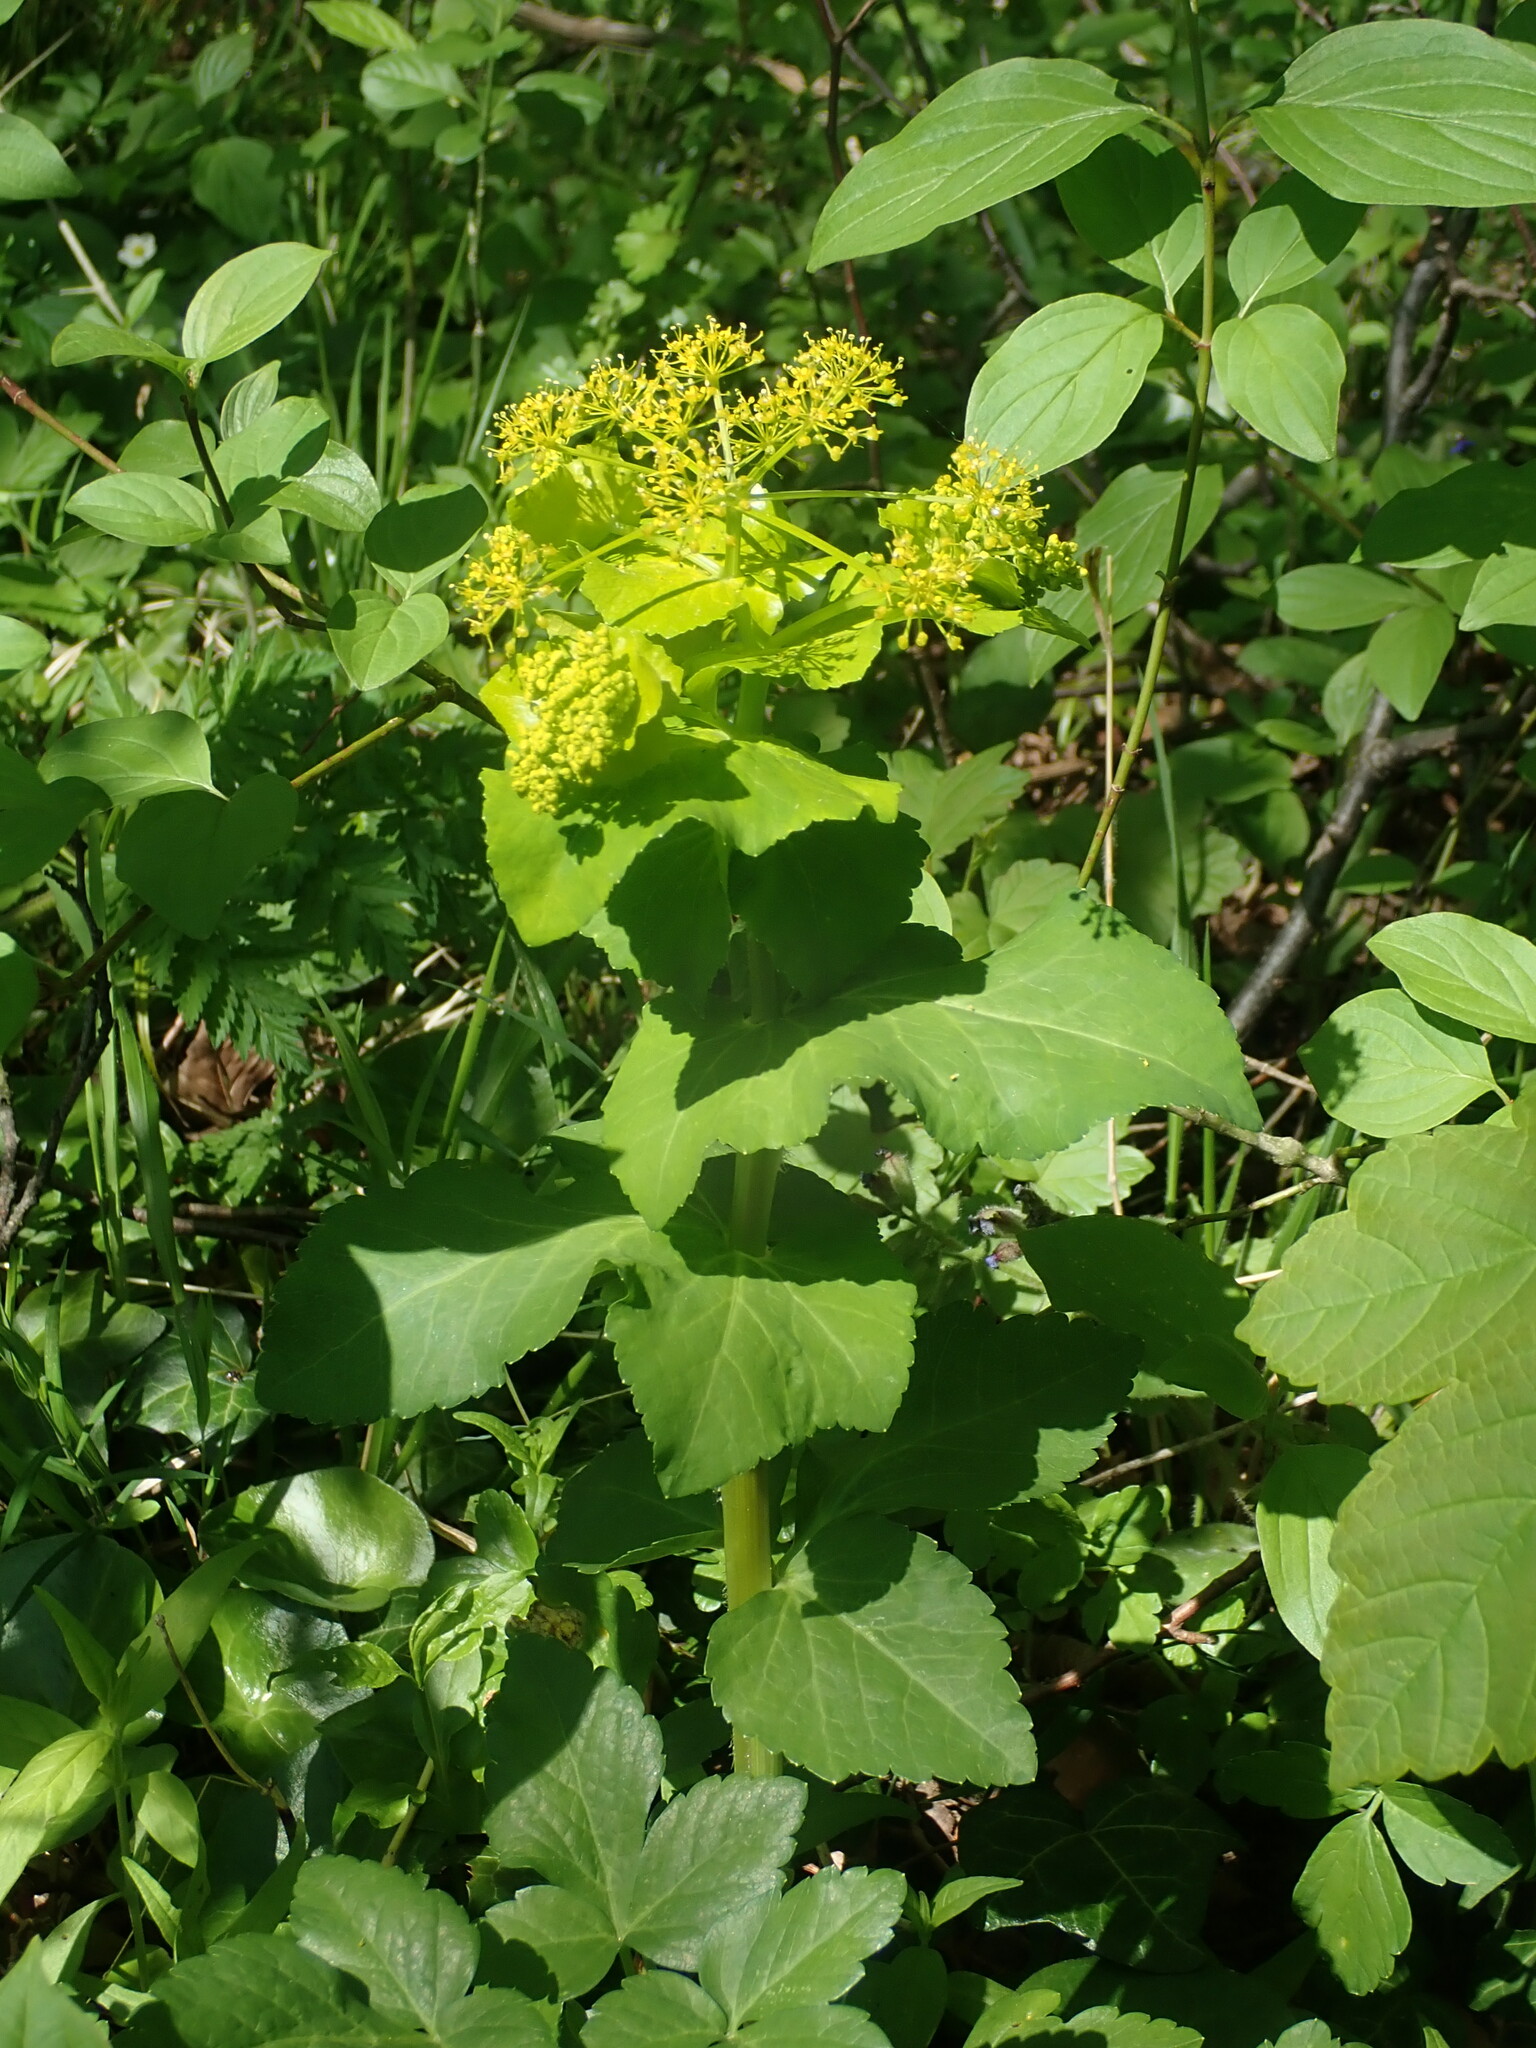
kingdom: Plantae
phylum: Tracheophyta
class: Magnoliopsida
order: Apiales
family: Apiaceae
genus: Smyrnium
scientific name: Smyrnium perfoliatum
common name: Perfoliate alexanders
